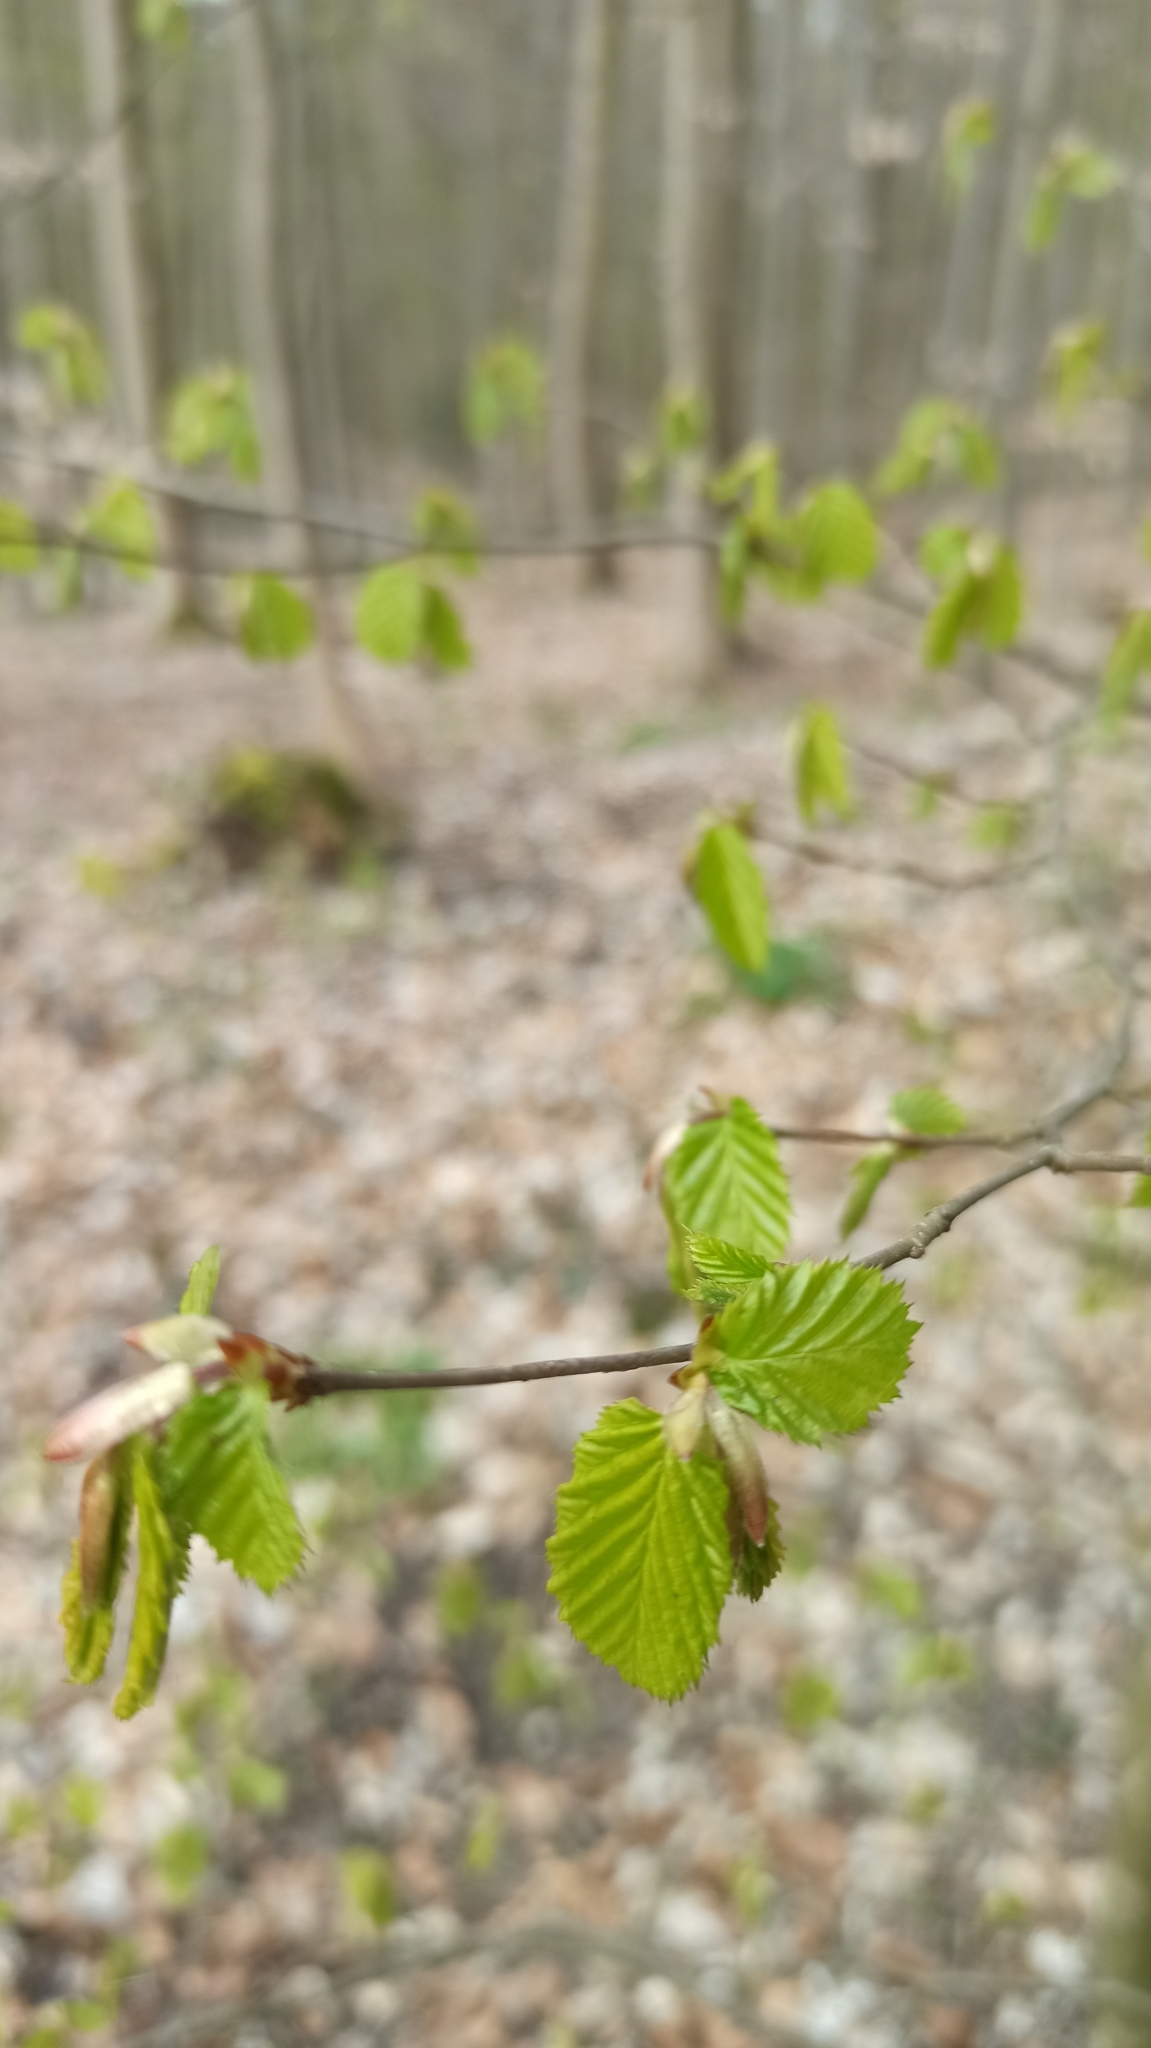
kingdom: Plantae
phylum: Tracheophyta
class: Magnoliopsida
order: Fagales
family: Betulaceae
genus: Carpinus
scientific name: Carpinus betulus
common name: Hornbeam
